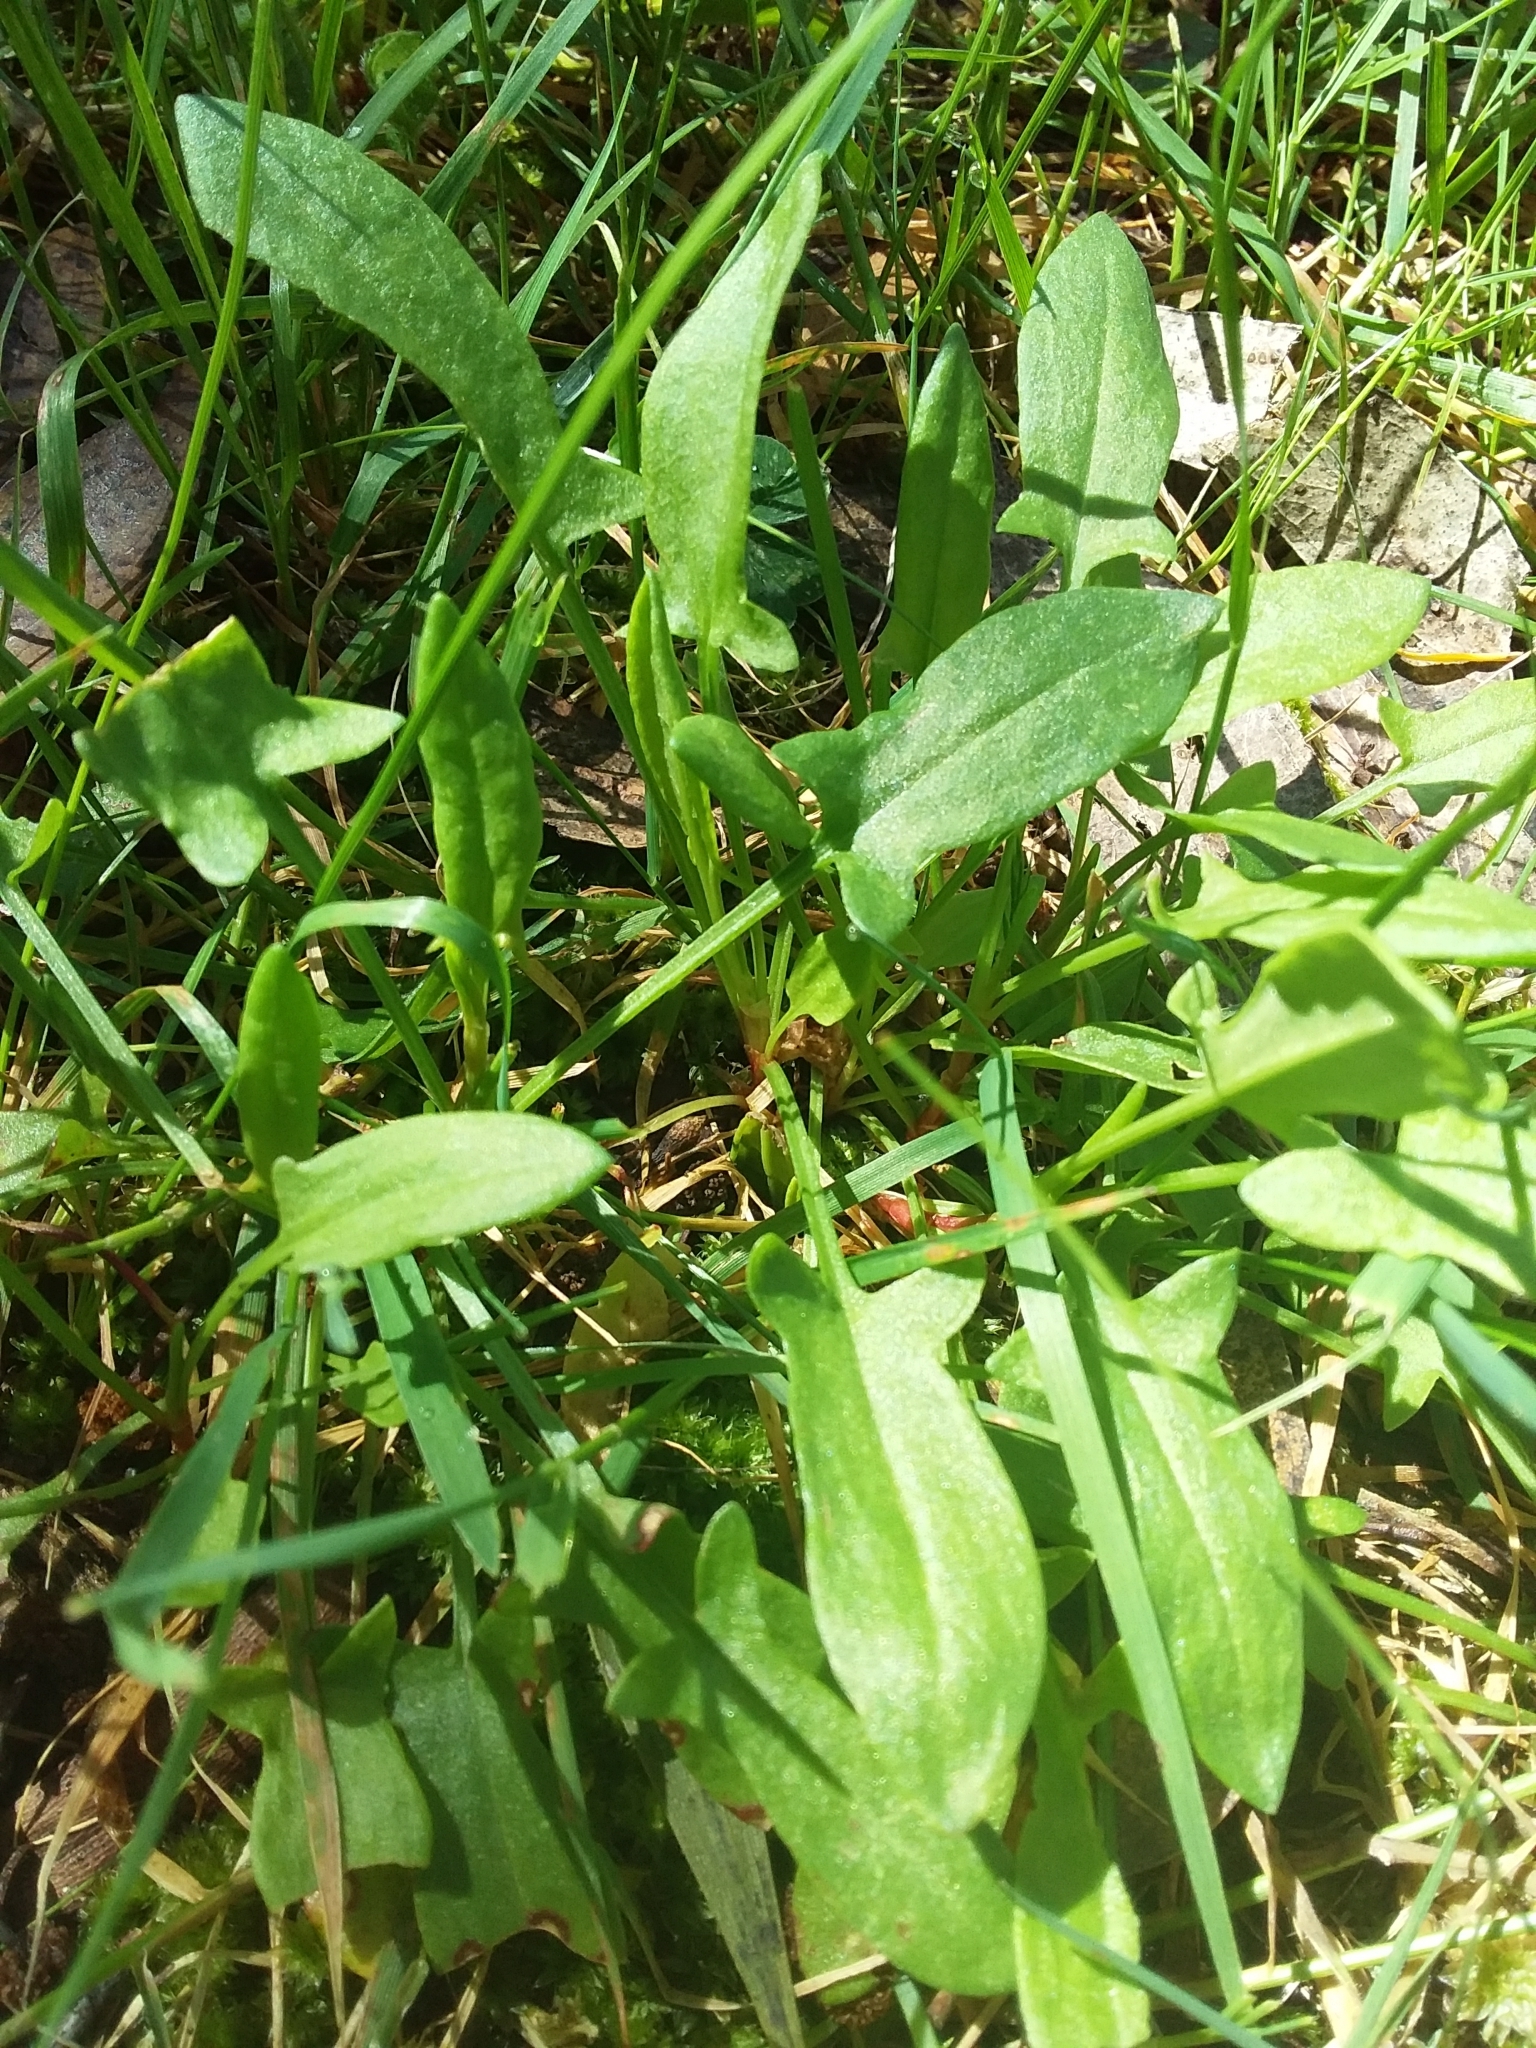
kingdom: Plantae
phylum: Tracheophyta
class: Magnoliopsida
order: Caryophyllales
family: Polygonaceae
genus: Rumex
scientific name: Rumex acetosella
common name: Common sheep sorrel
